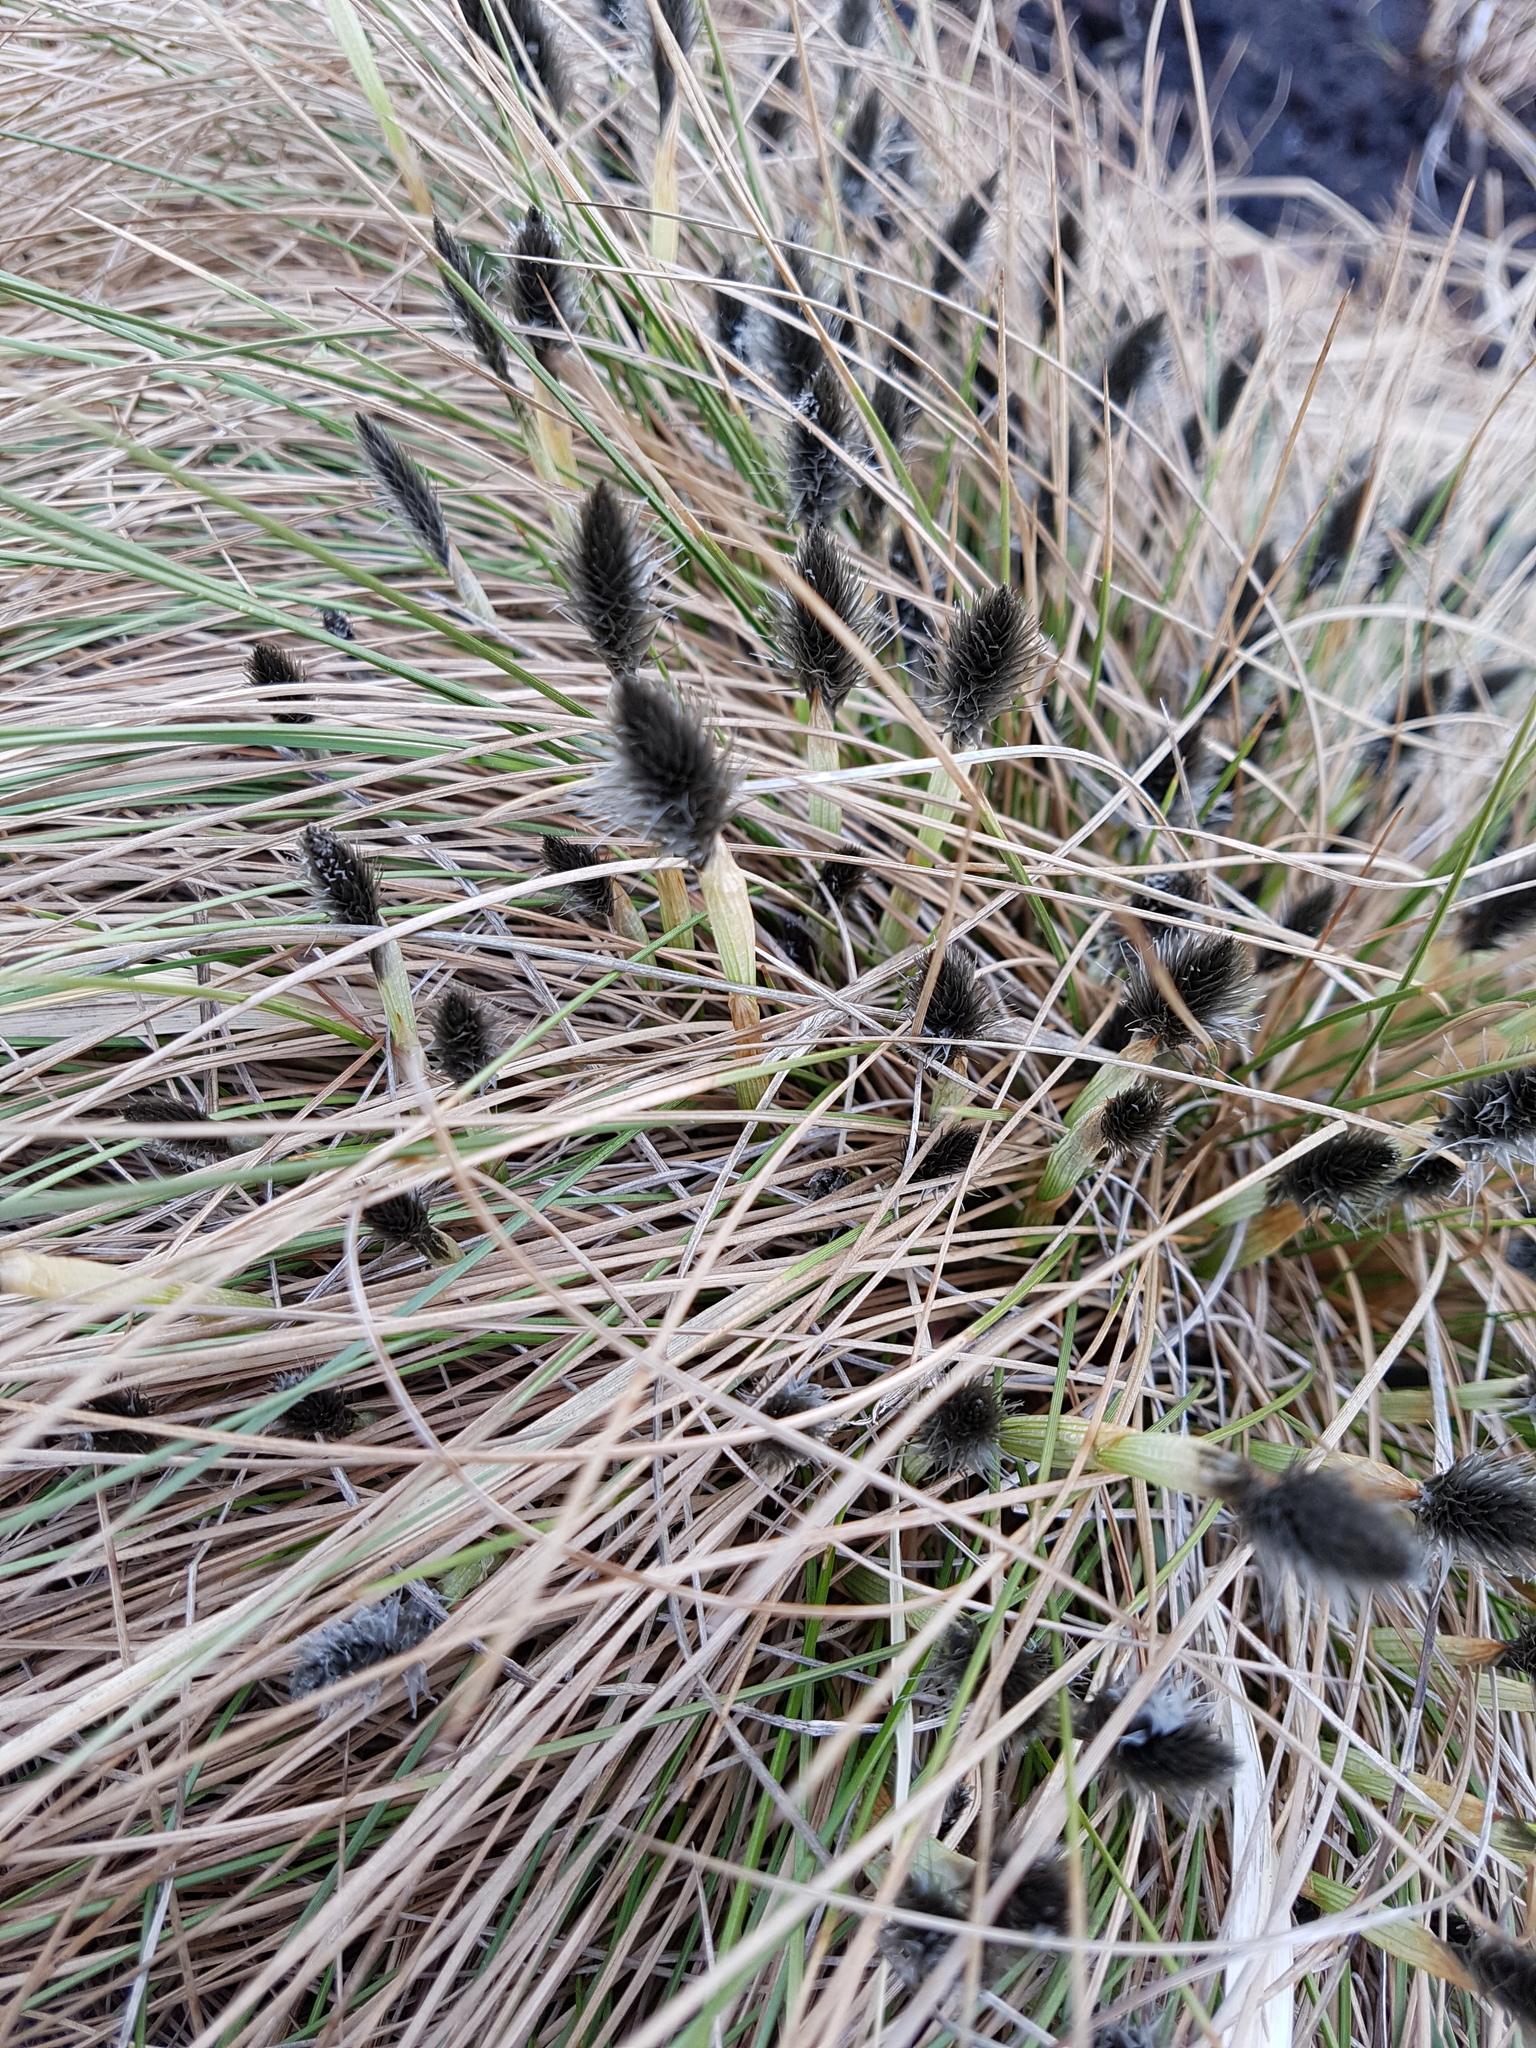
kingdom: Plantae
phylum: Tracheophyta
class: Liliopsida
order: Poales
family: Cyperaceae
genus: Eriophorum
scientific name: Eriophorum vaginatum
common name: Hare's-tail cottongrass
